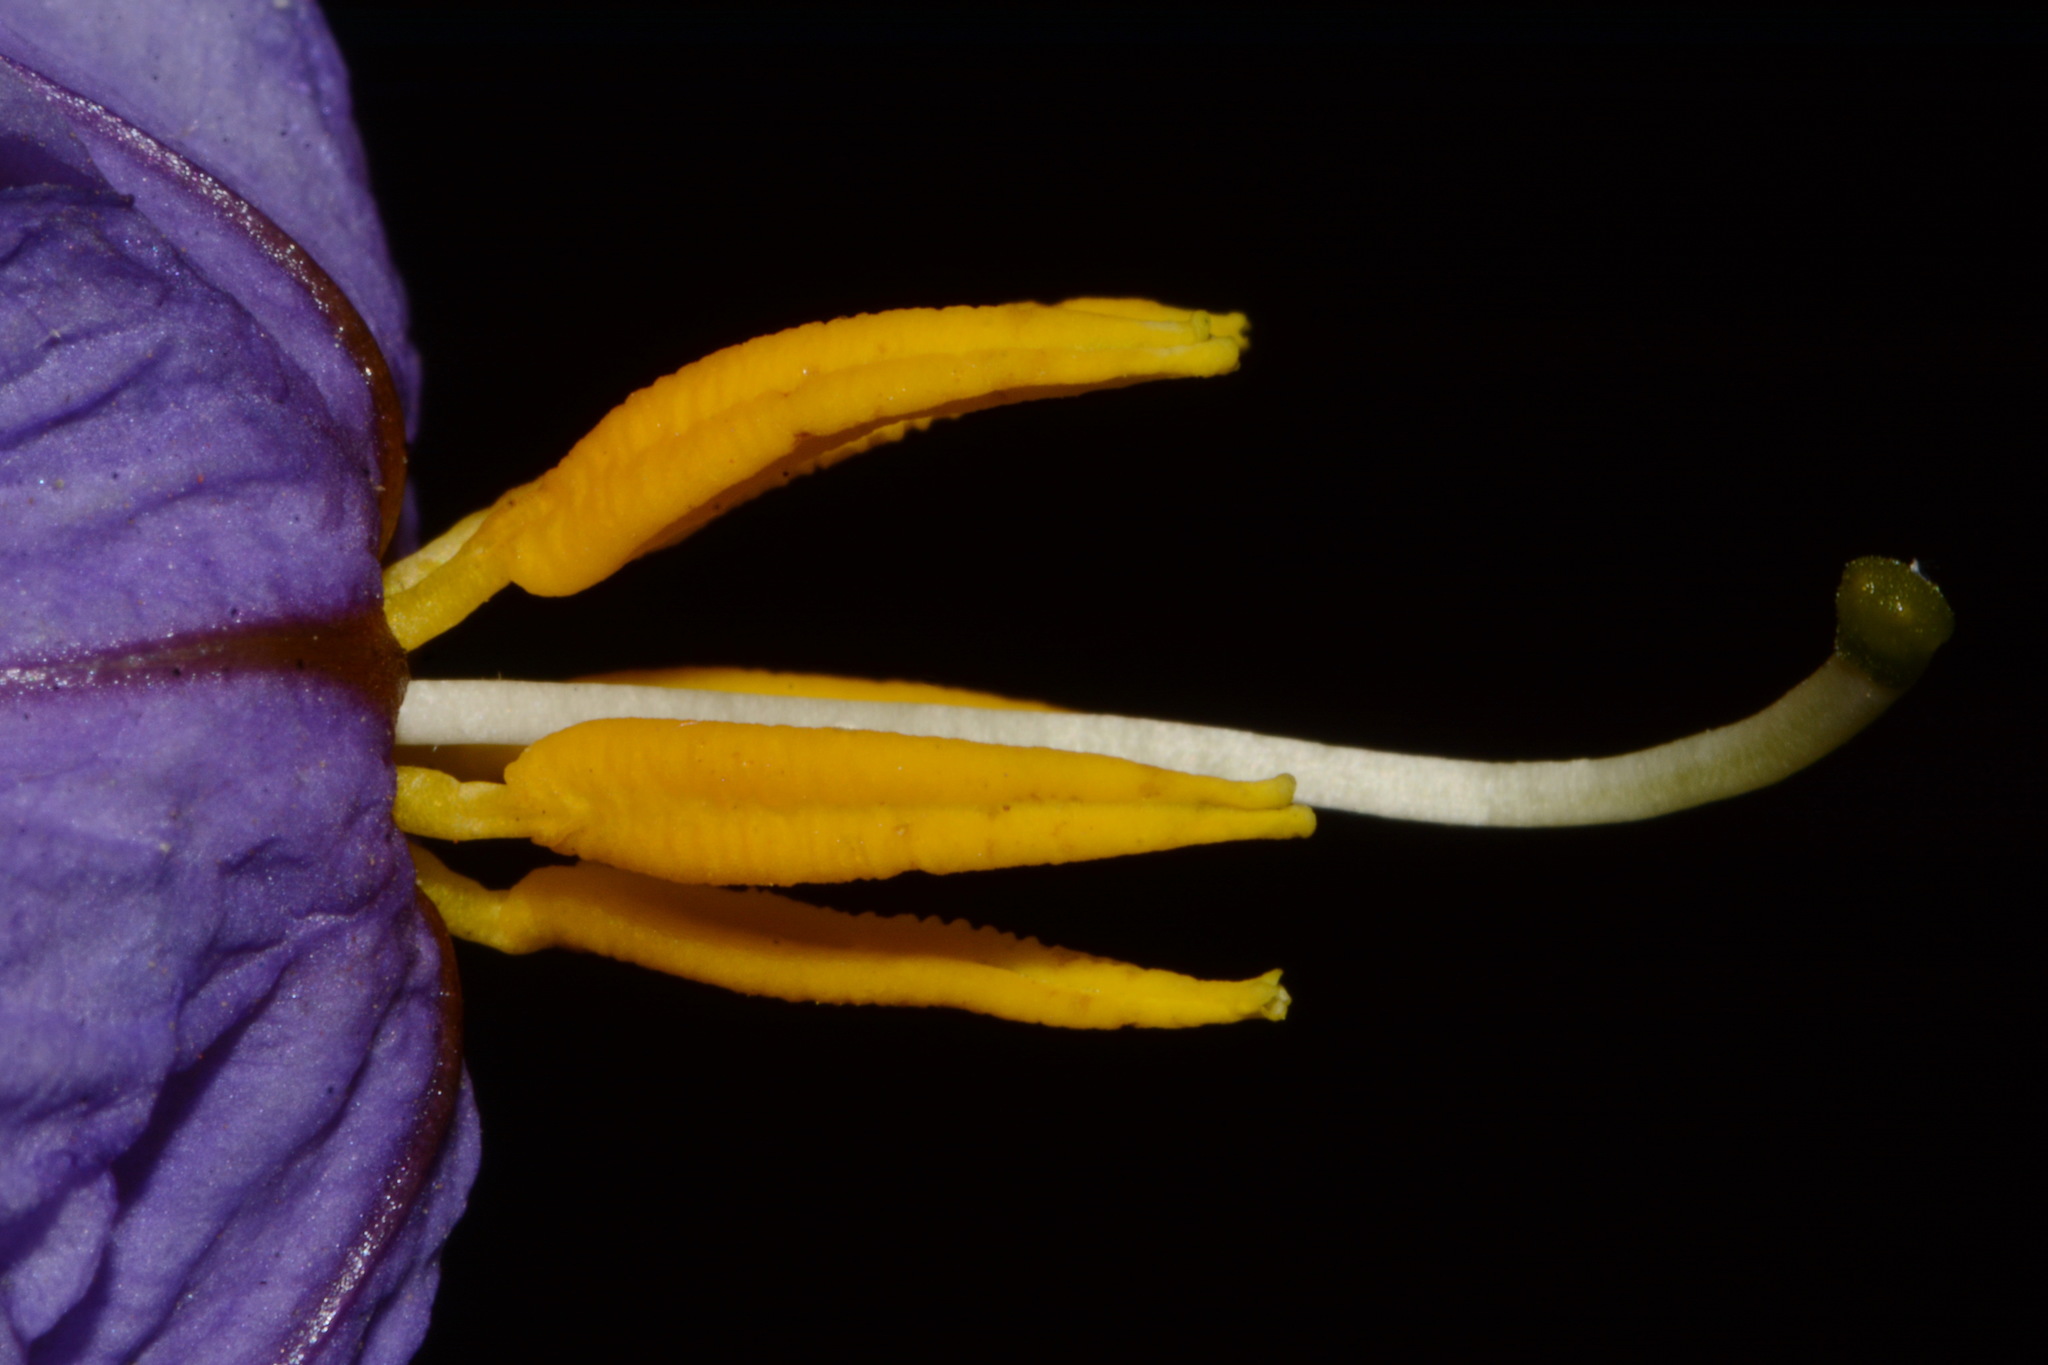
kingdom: Plantae
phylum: Tracheophyta
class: Magnoliopsida
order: Solanales
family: Solanaceae
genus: Solanum
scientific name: Solanum elaeagnifolium
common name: Silverleaf nightshade
